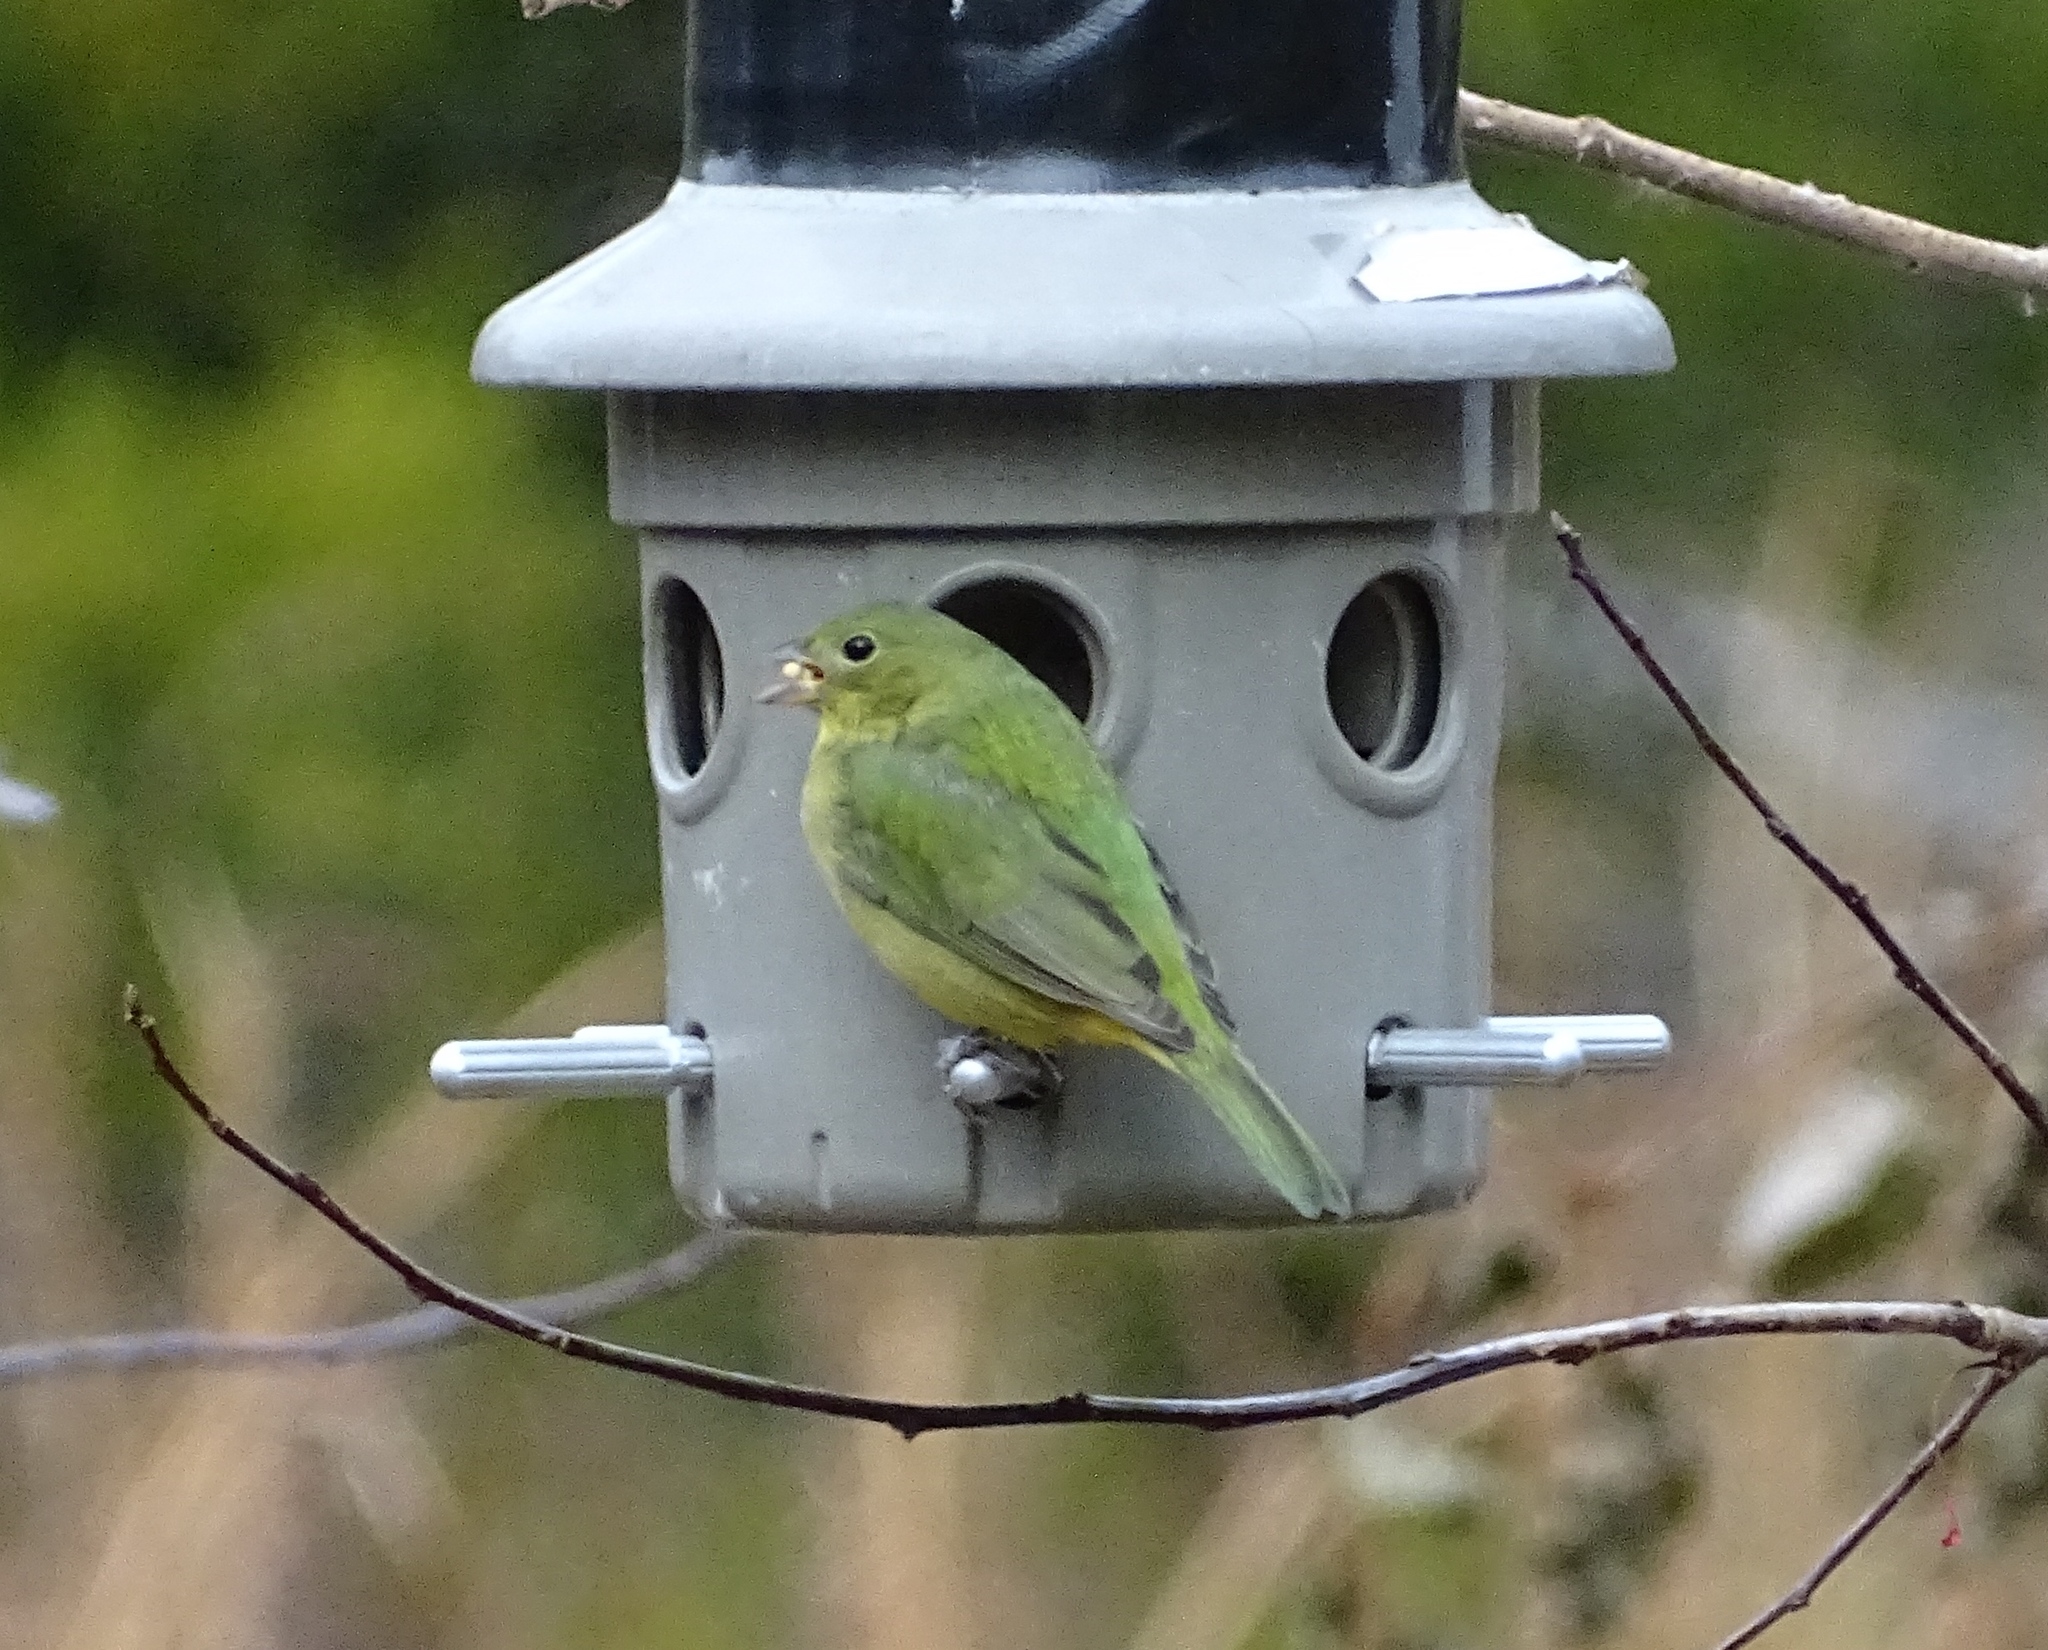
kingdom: Animalia
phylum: Chordata
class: Aves
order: Passeriformes
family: Cardinalidae
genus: Passerina
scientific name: Passerina ciris
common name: Painted bunting
